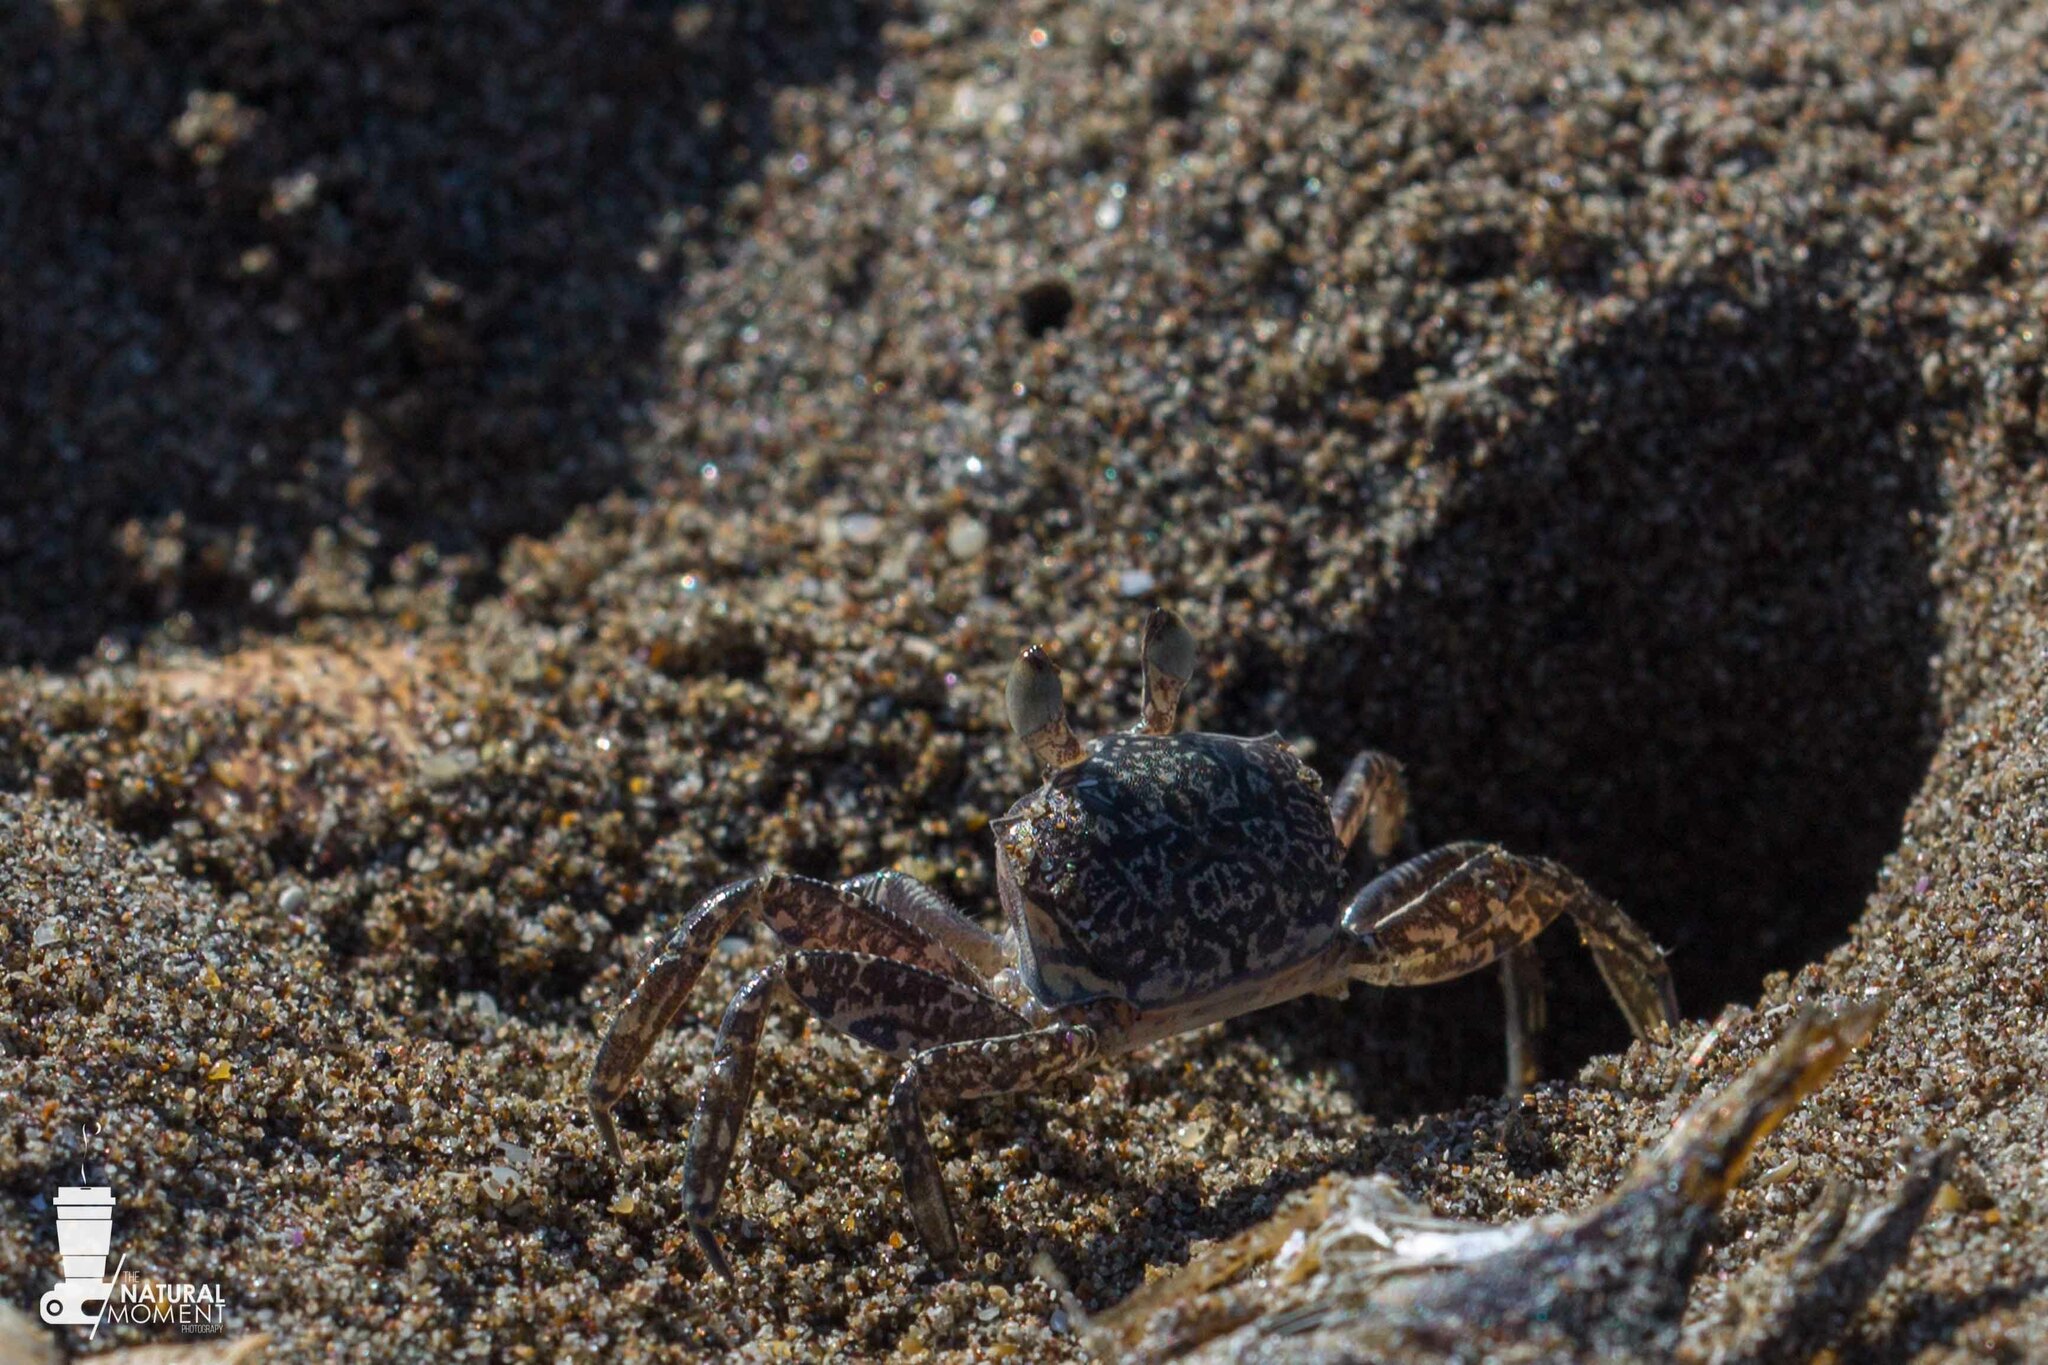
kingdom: Animalia
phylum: Arthropoda
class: Malacostraca
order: Decapoda
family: Ocypodidae
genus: Ocypode
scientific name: Ocypode gaudichaudii
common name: Pacific ghost crab
